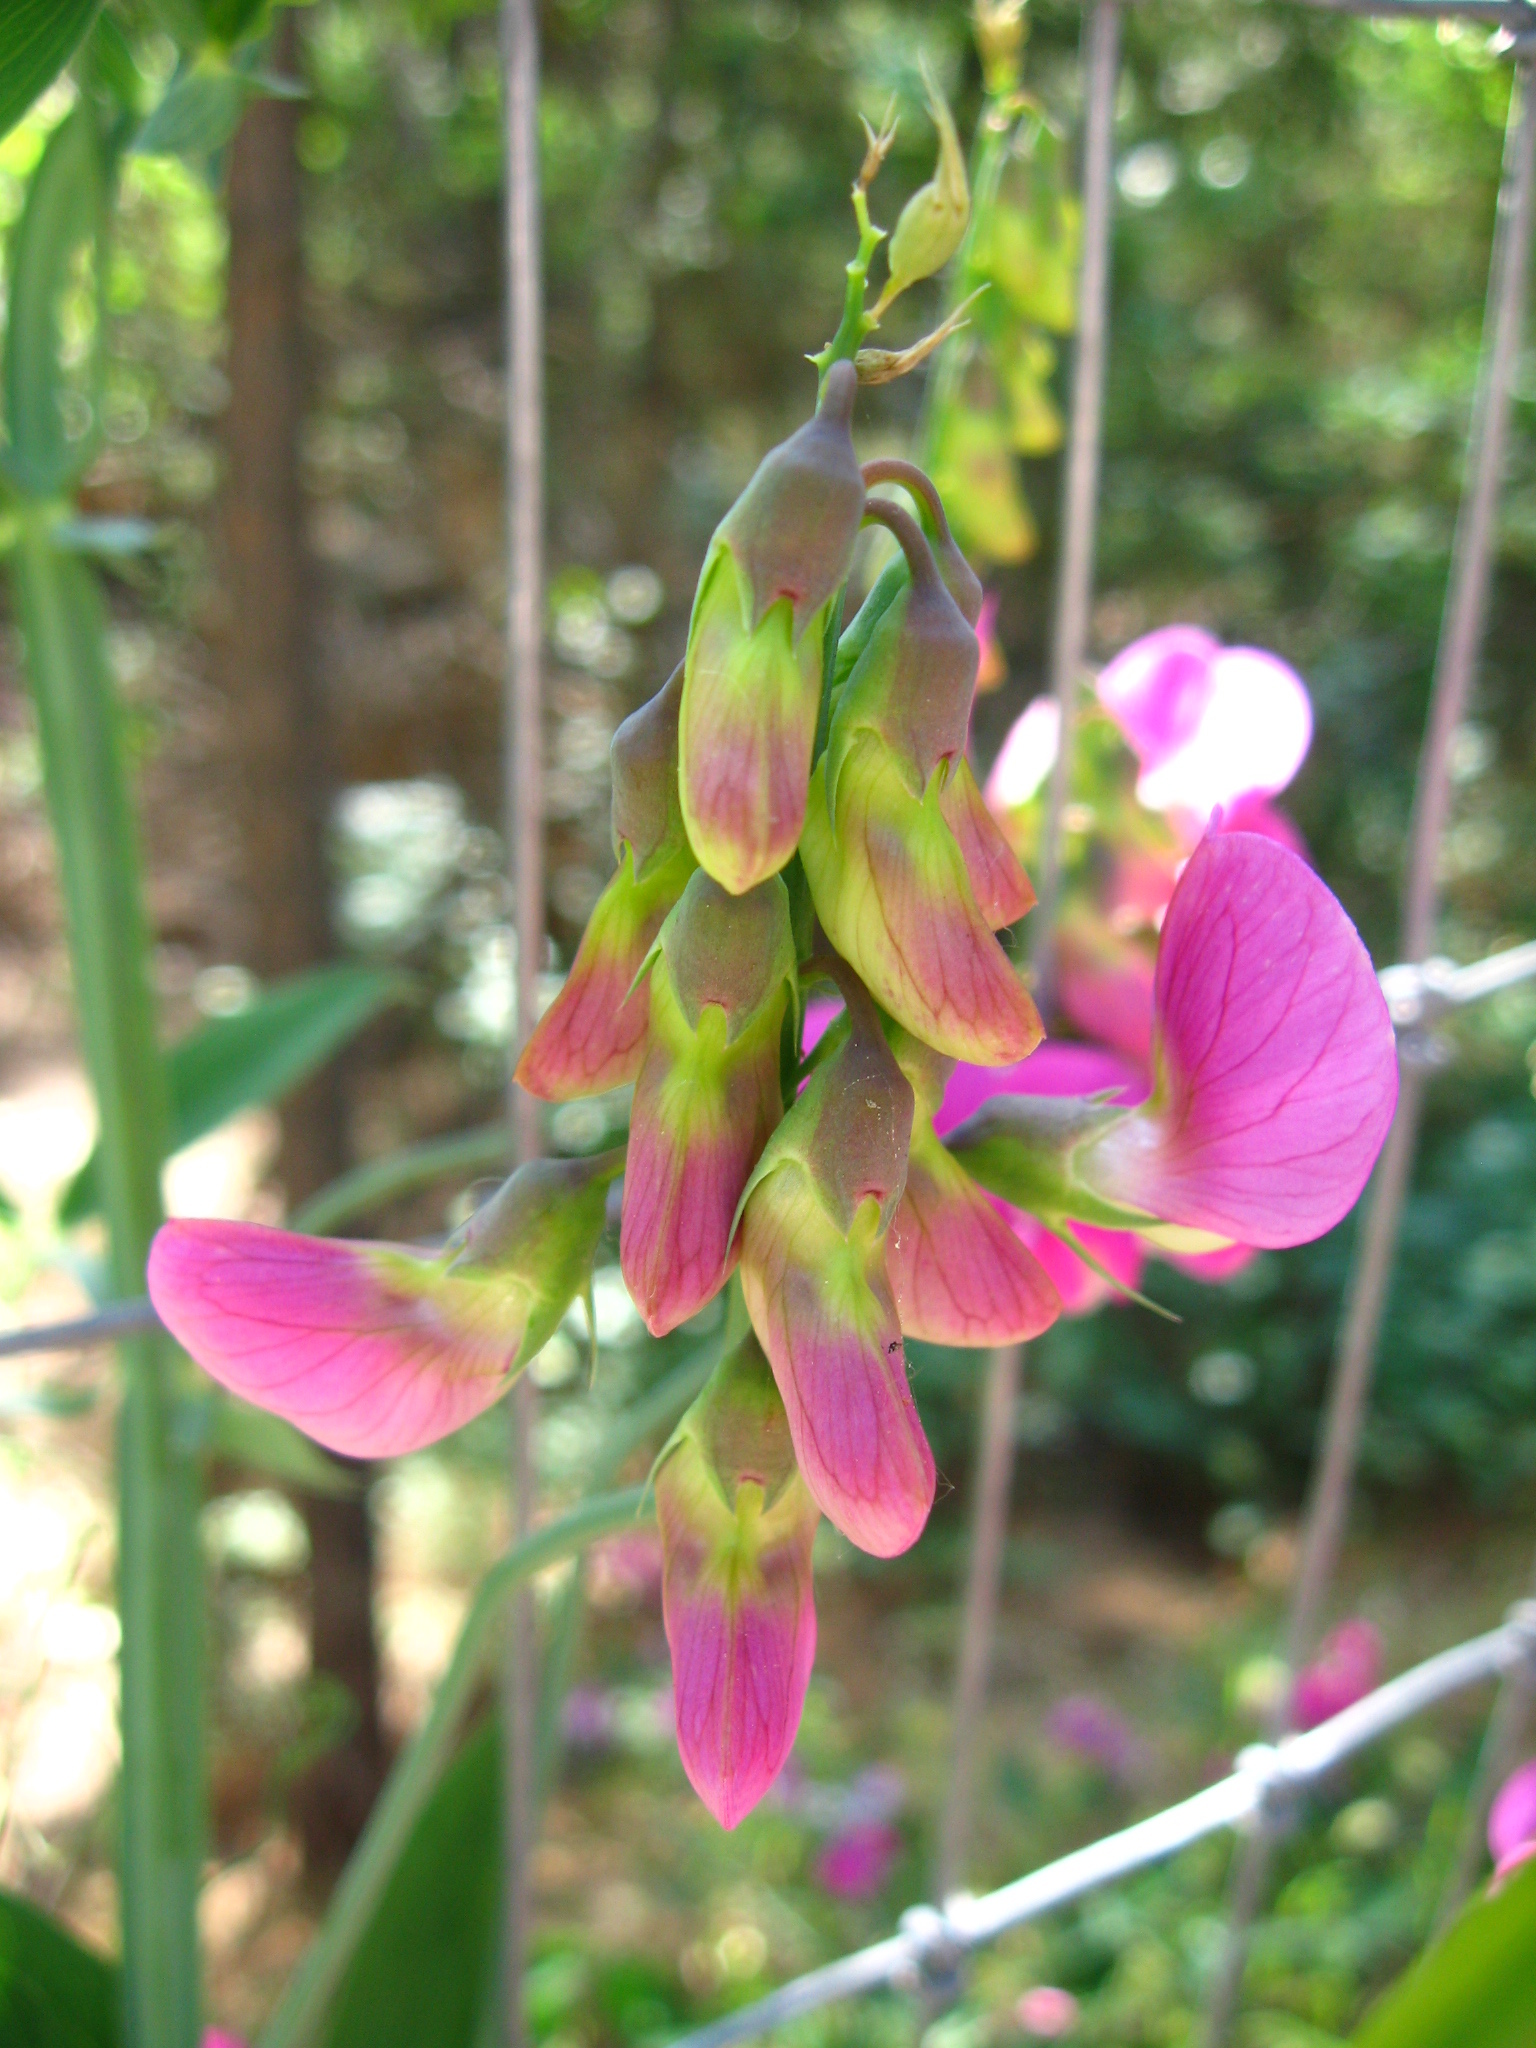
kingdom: Plantae
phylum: Tracheophyta
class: Magnoliopsida
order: Fabales
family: Fabaceae
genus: Lathyrus
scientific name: Lathyrus latifolius
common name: Perennial pea
